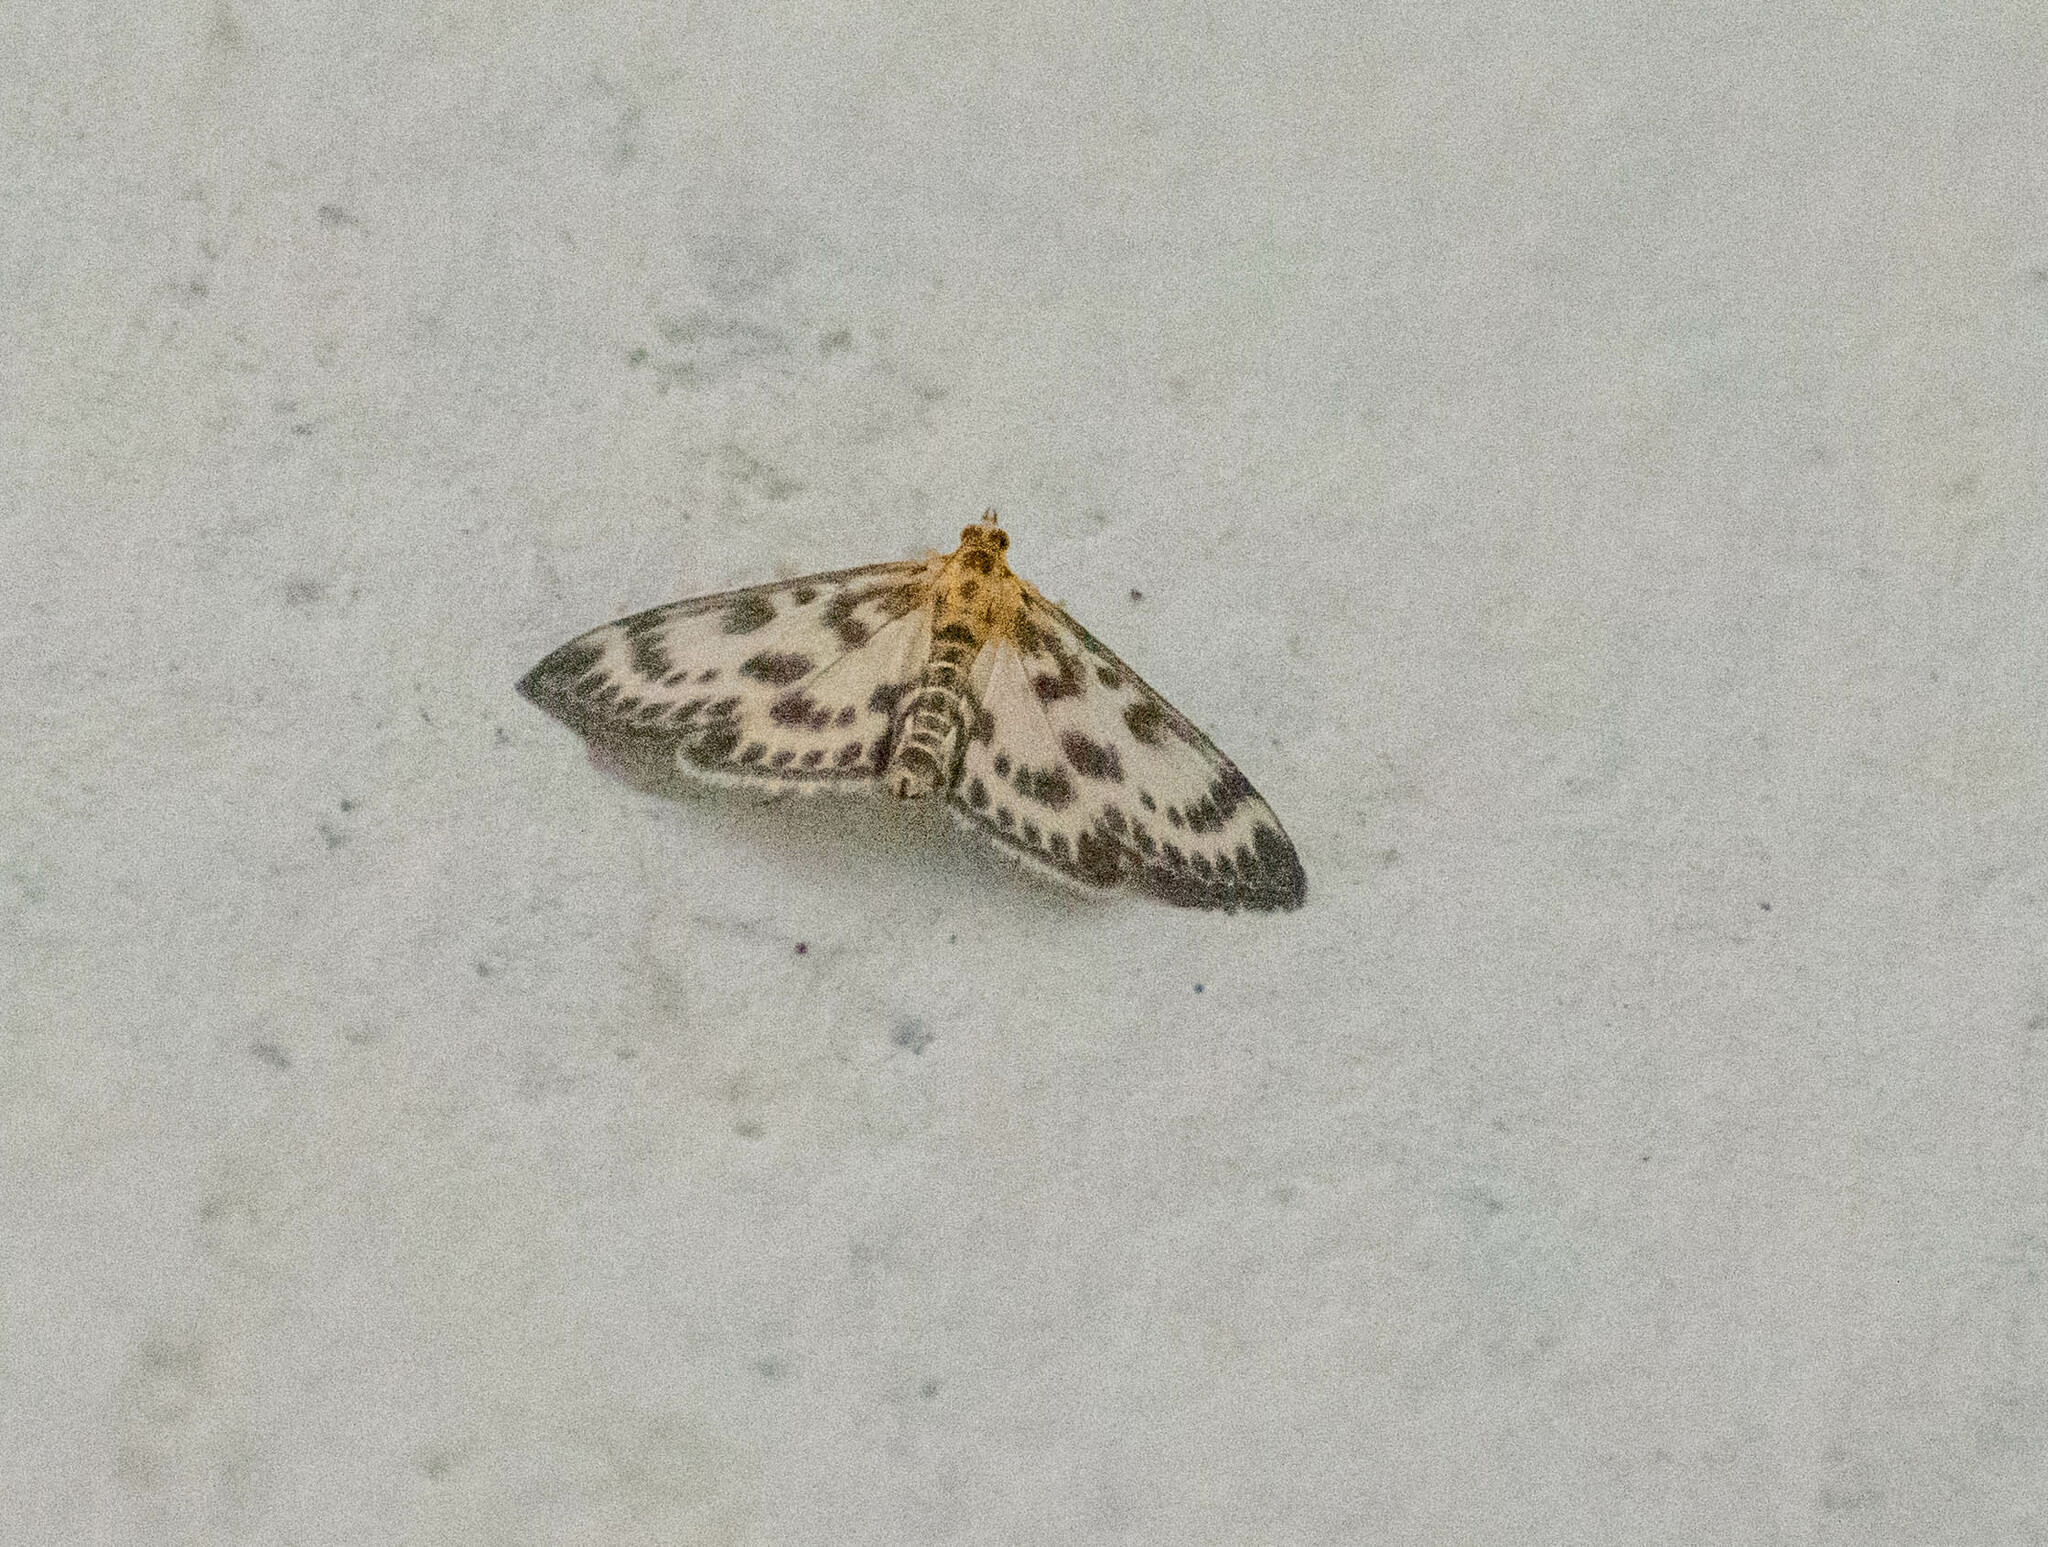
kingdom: Animalia
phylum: Arthropoda
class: Insecta
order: Lepidoptera
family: Crambidae
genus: Anania
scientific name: Anania hortulata
